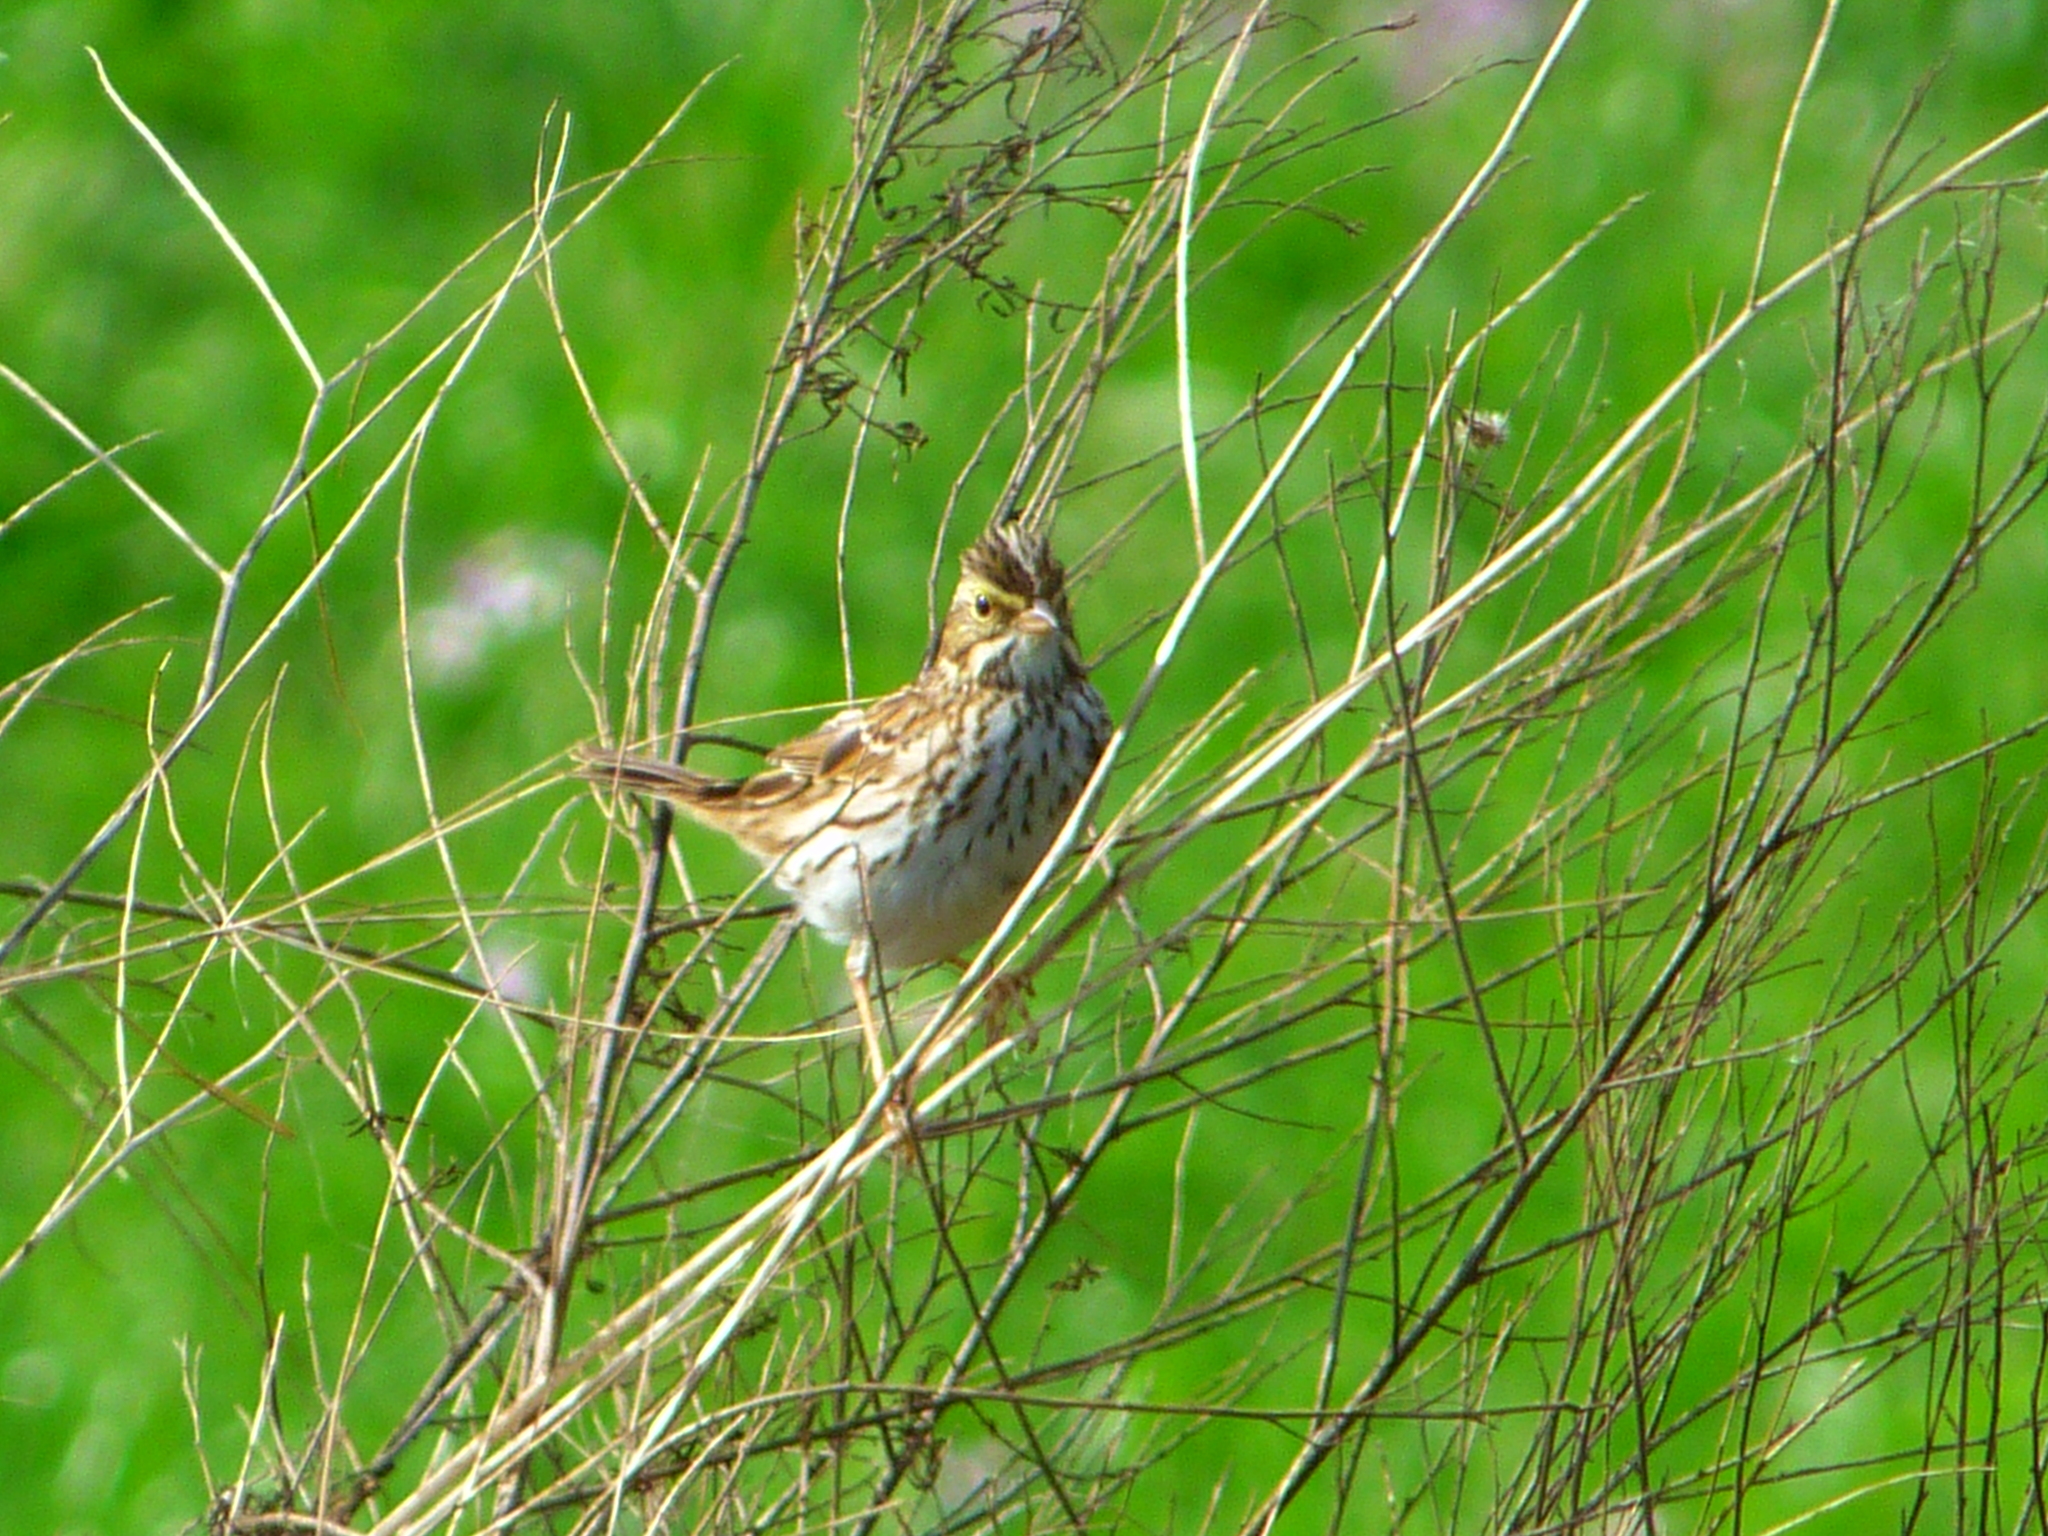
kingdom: Animalia
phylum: Chordata
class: Aves
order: Passeriformes
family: Passerellidae
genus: Passerculus
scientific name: Passerculus sandwichensis
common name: Savannah sparrow
